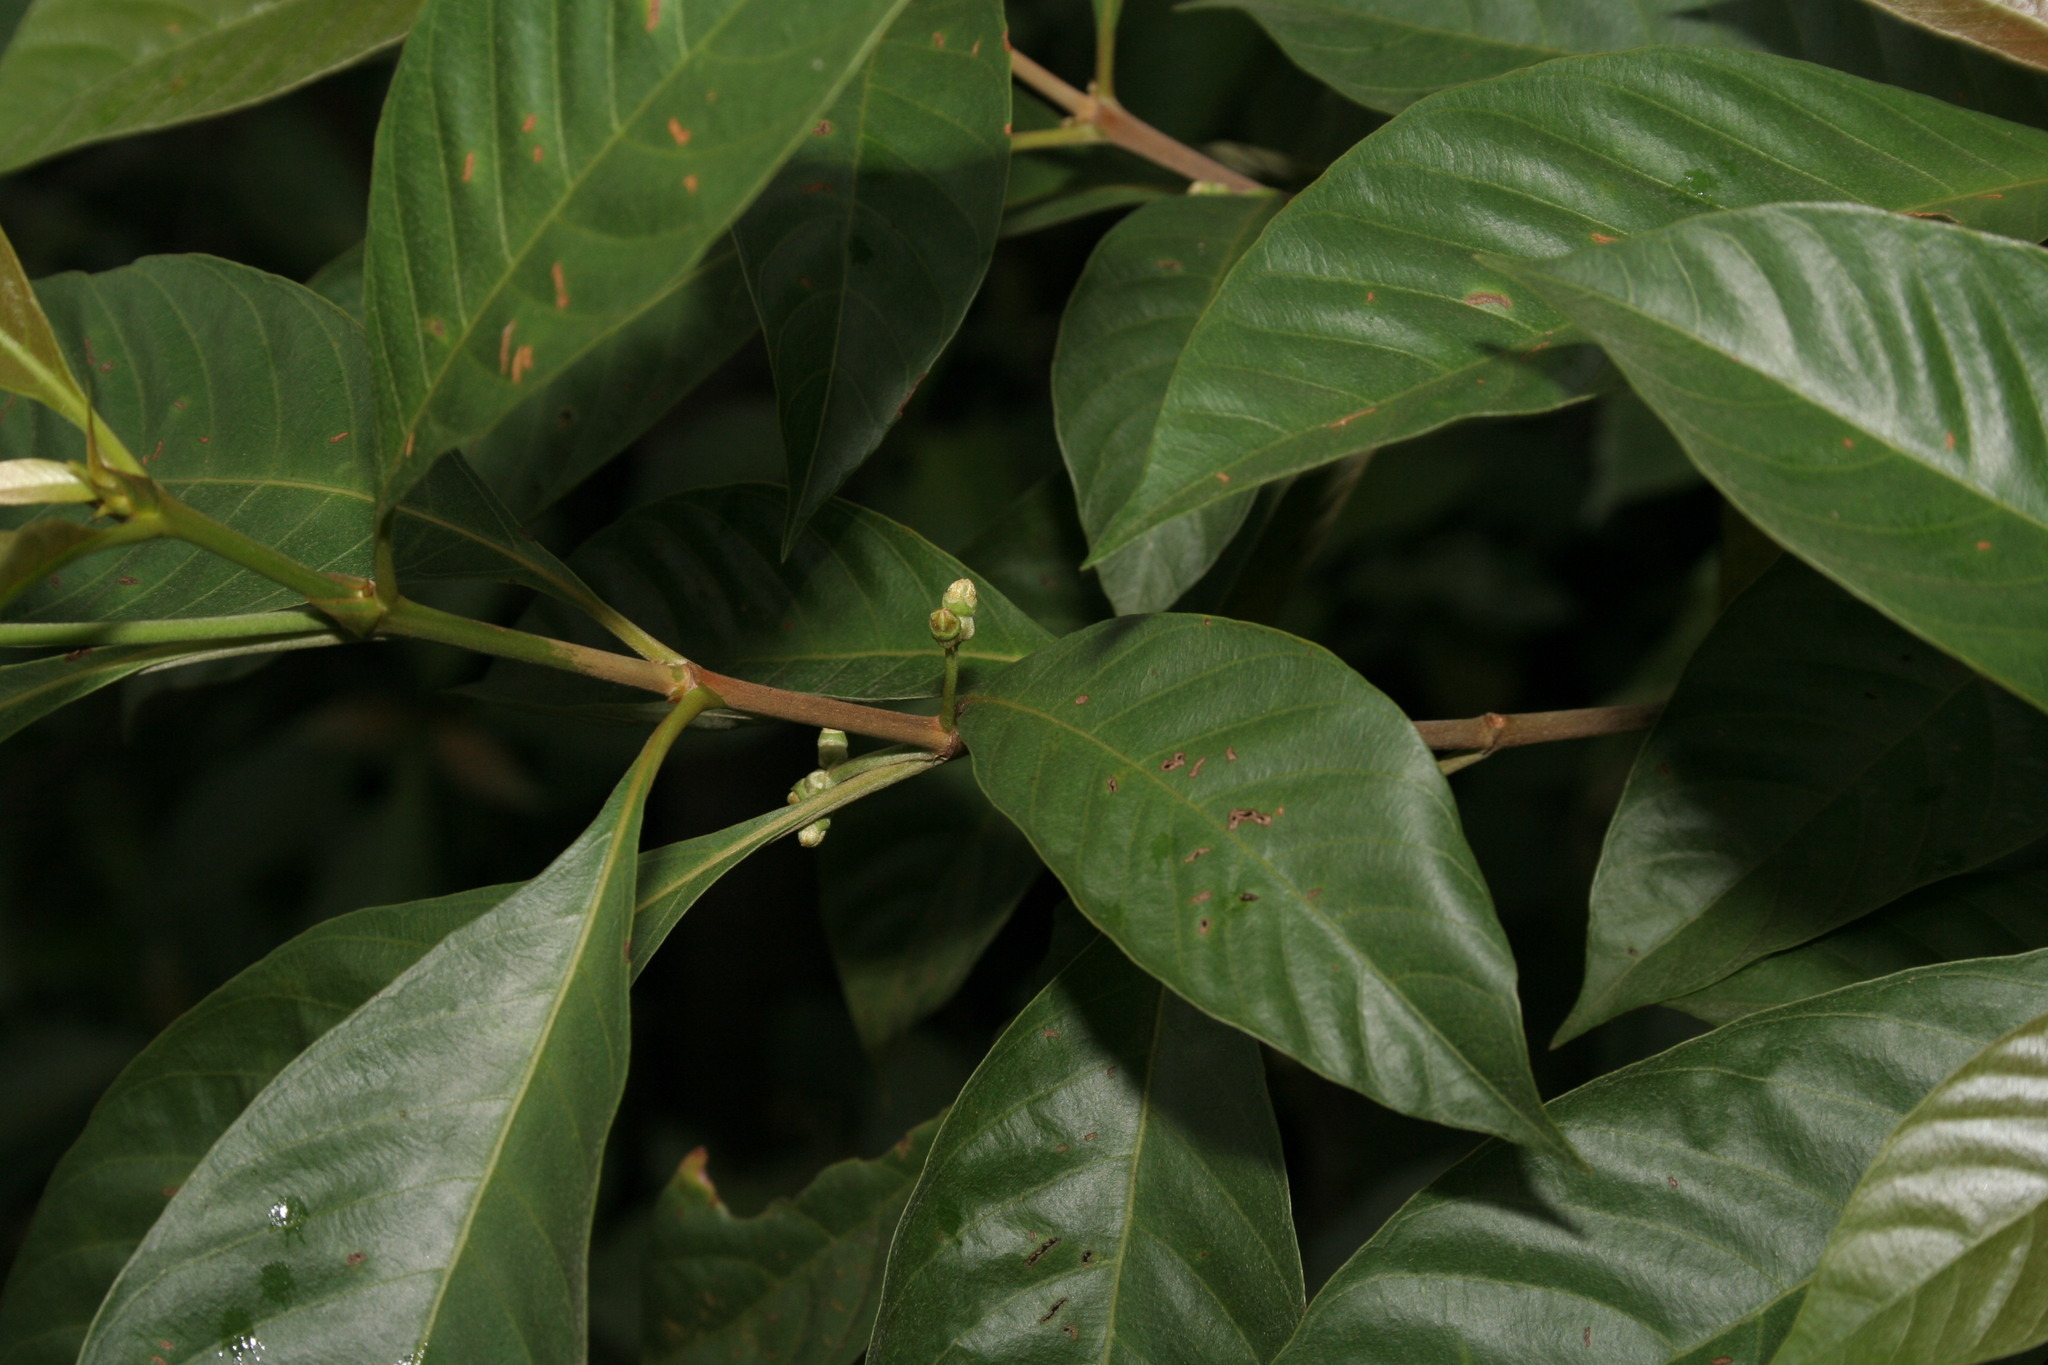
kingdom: Plantae
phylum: Tracheophyta
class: Magnoliopsida
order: Gentianales
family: Rubiaceae
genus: Timonius
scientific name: Timonius wallichianus
